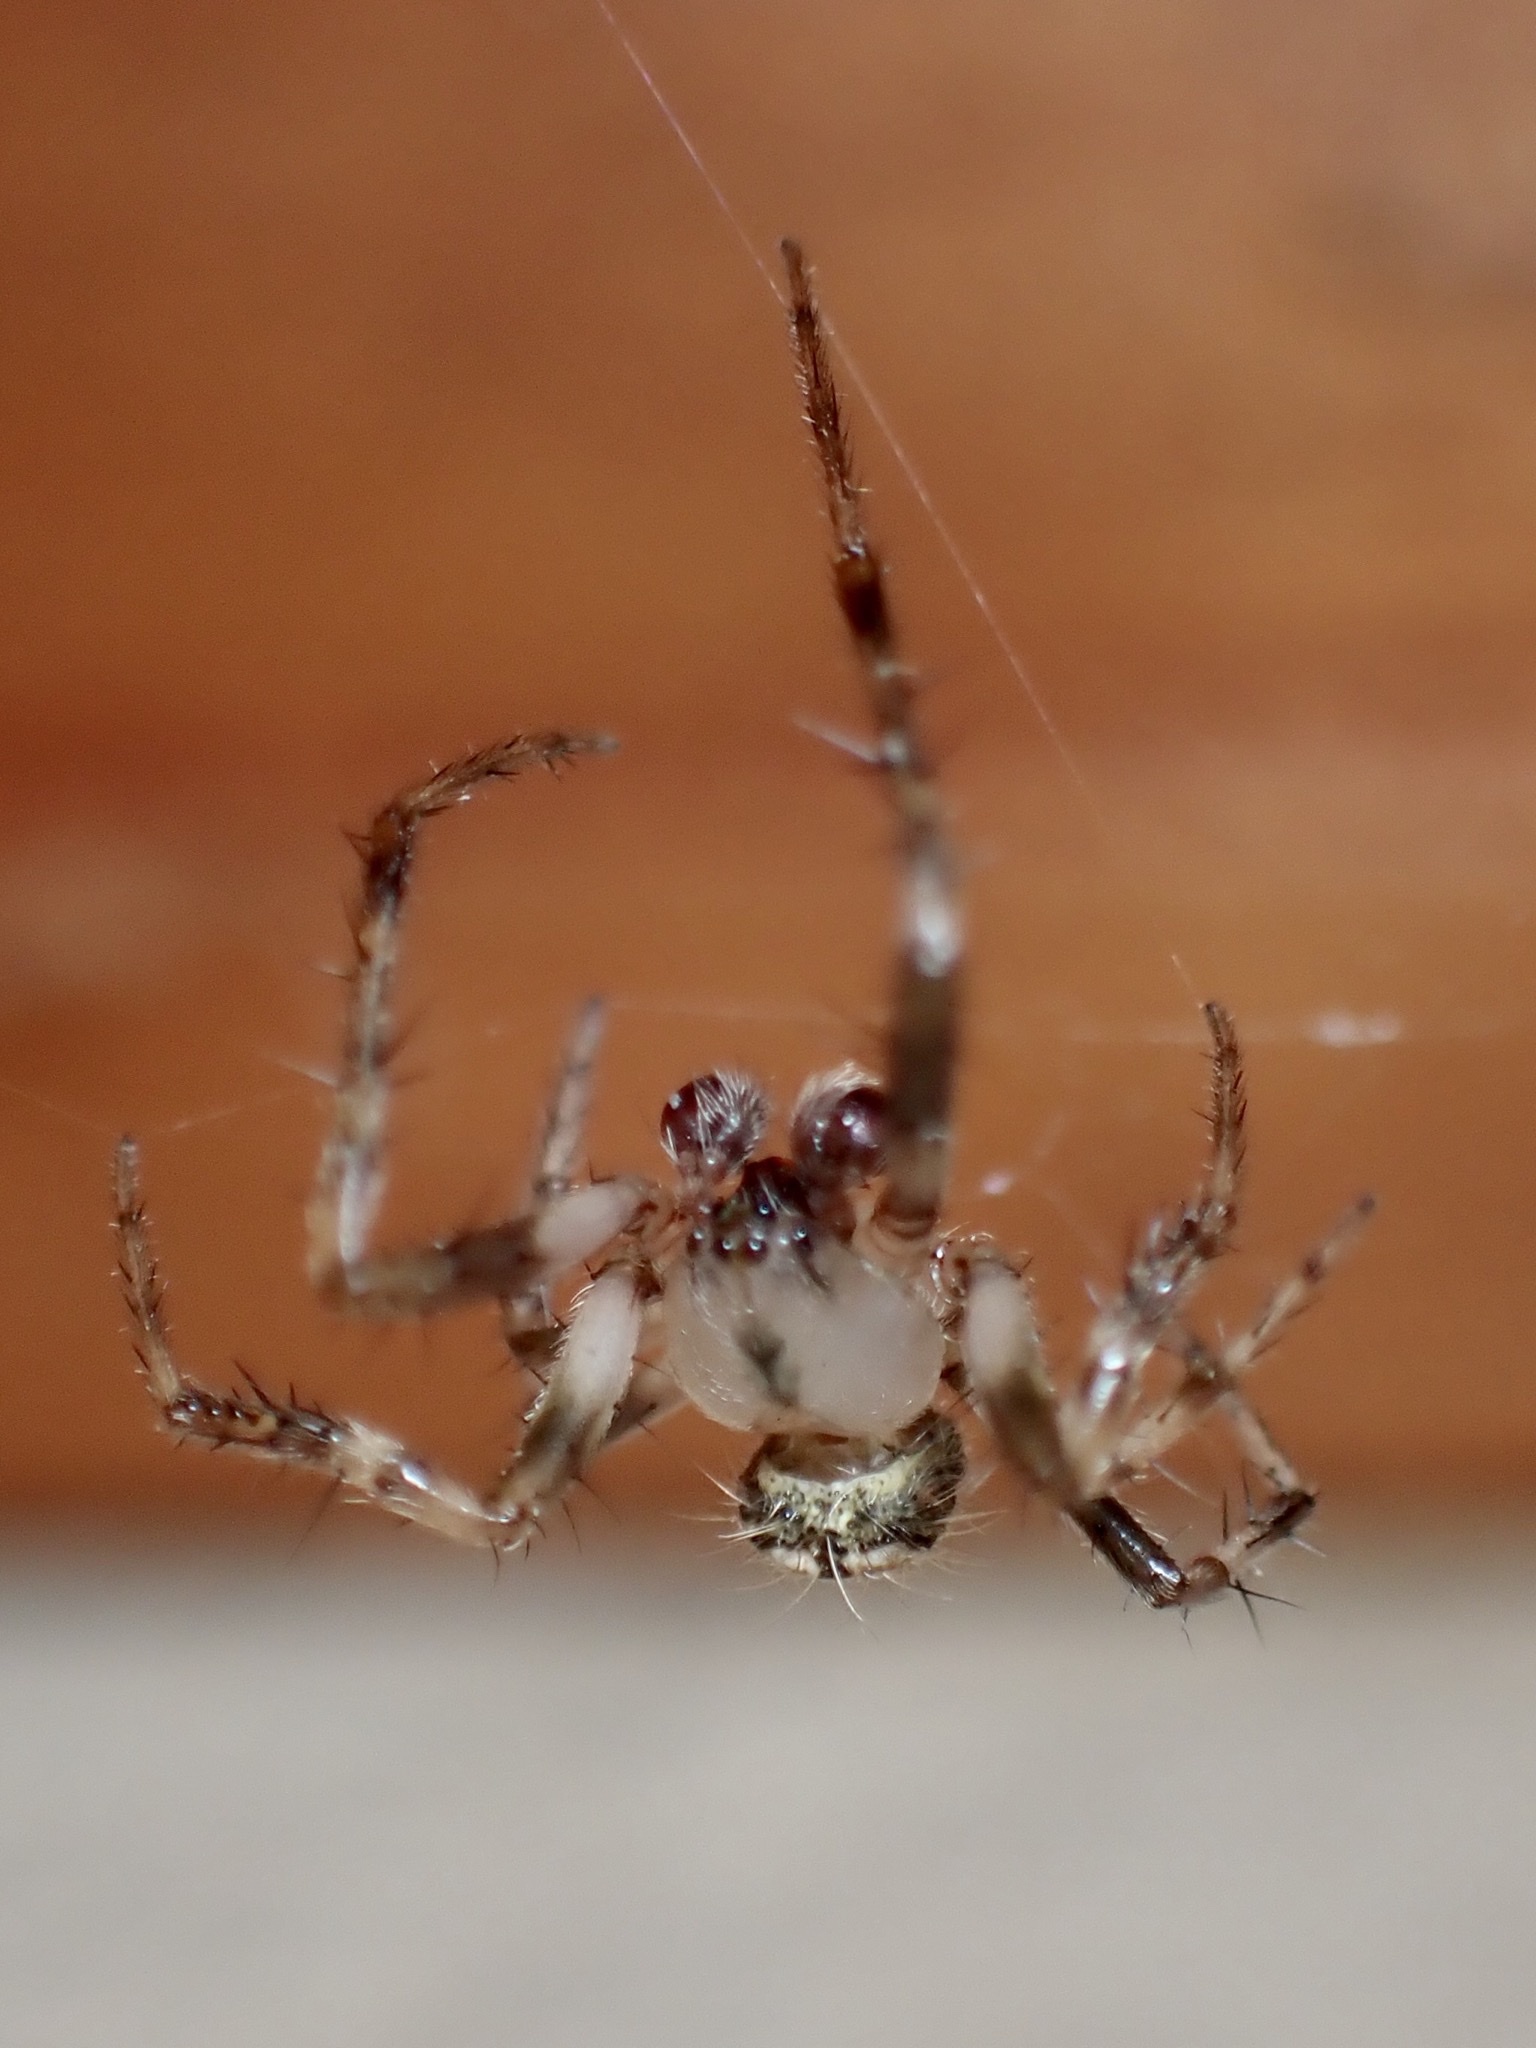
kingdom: Animalia
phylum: Arthropoda
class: Arachnida
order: Araneae
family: Araneidae
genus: Araneus
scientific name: Araneus pegnia
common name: Orb weavers
